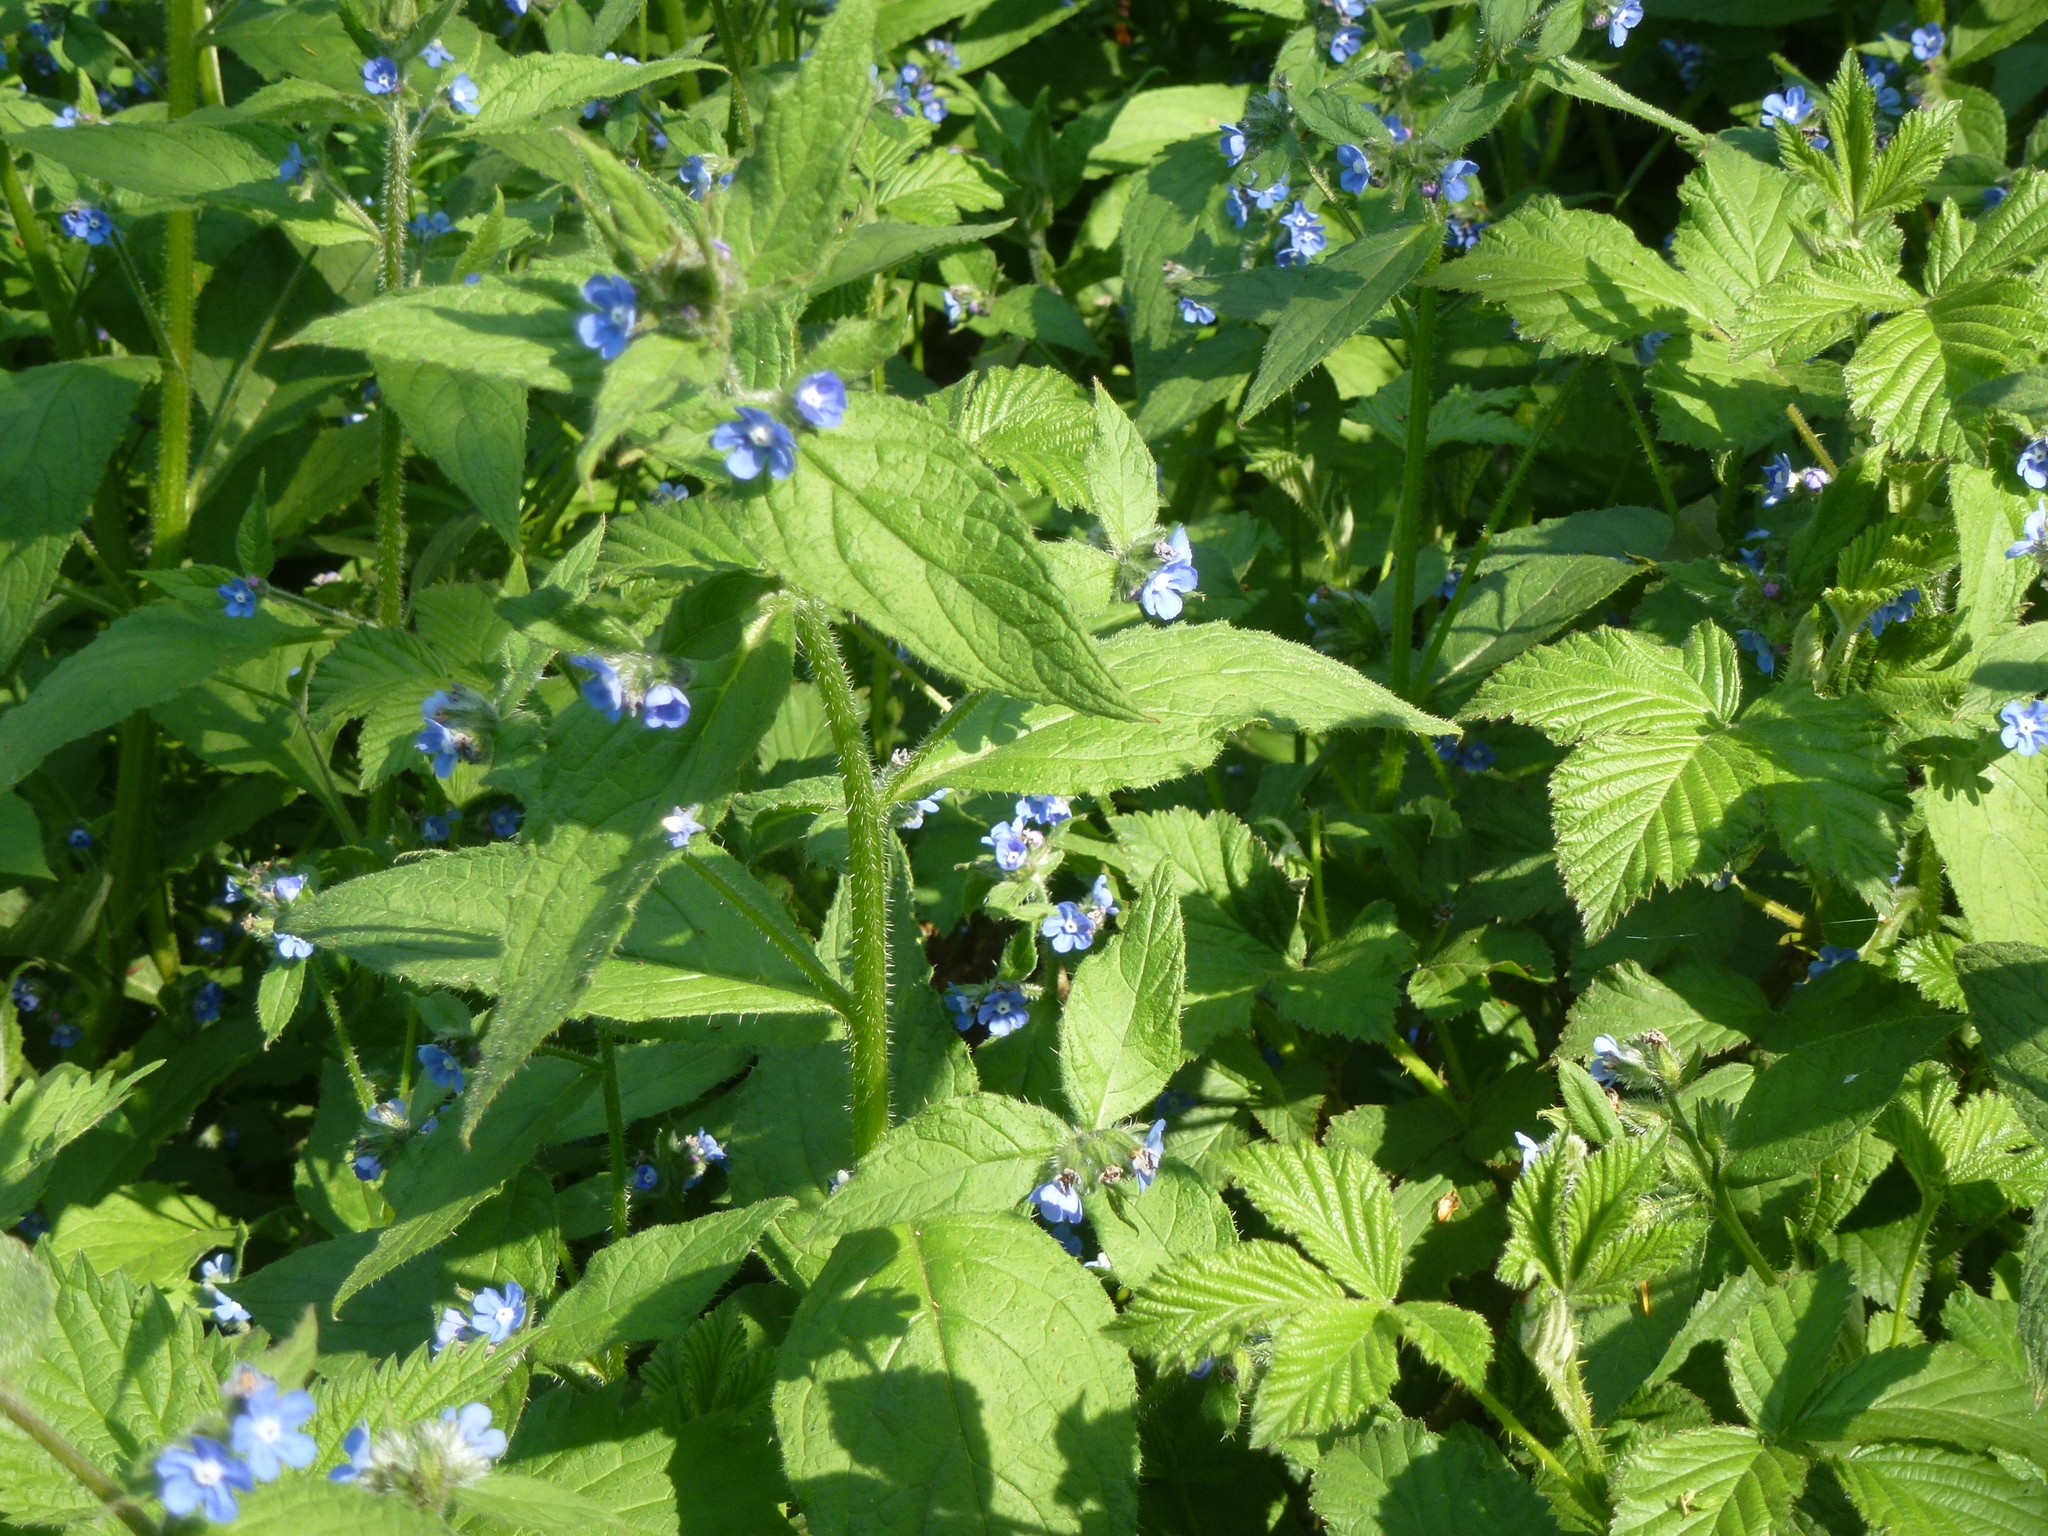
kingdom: Plantae
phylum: Tracheophyta
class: Magnoliopsida
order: Boraginales
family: Boraginaceae
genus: Pentaglottis
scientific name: Pentaglottis sempervirens
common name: Green alkanet
